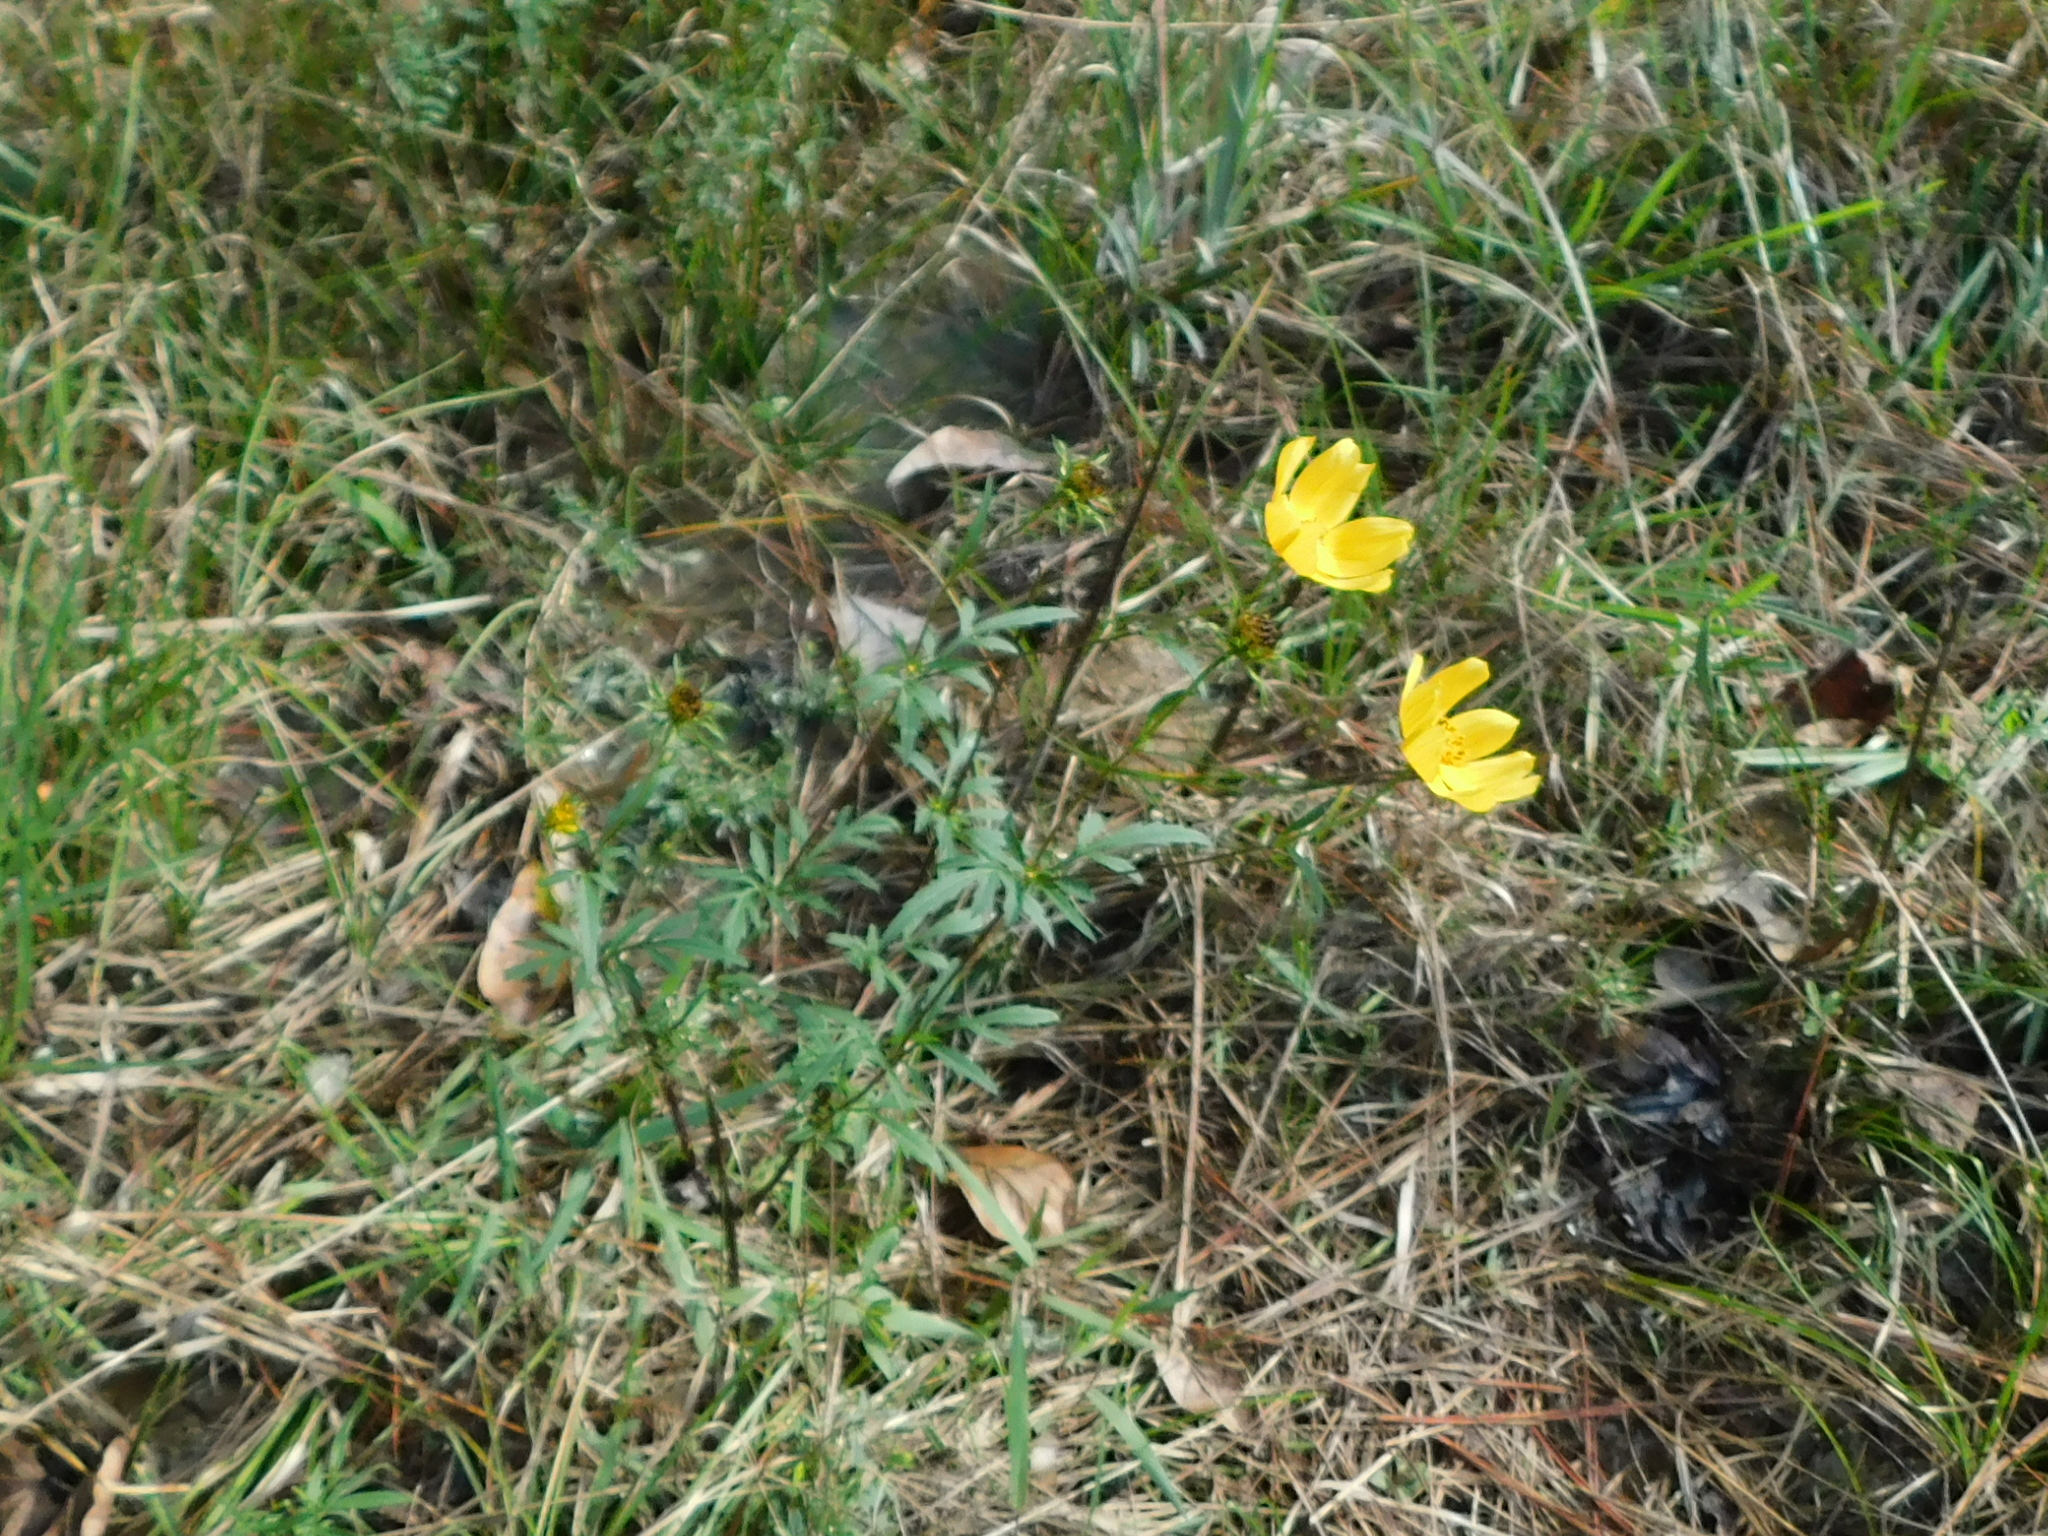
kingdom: Plantae
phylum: Tracheophyta
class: Magnoliopsida
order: Asterales
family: Asteraceae
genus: Bidens
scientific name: Bidens aristosa
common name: Western tickseed
